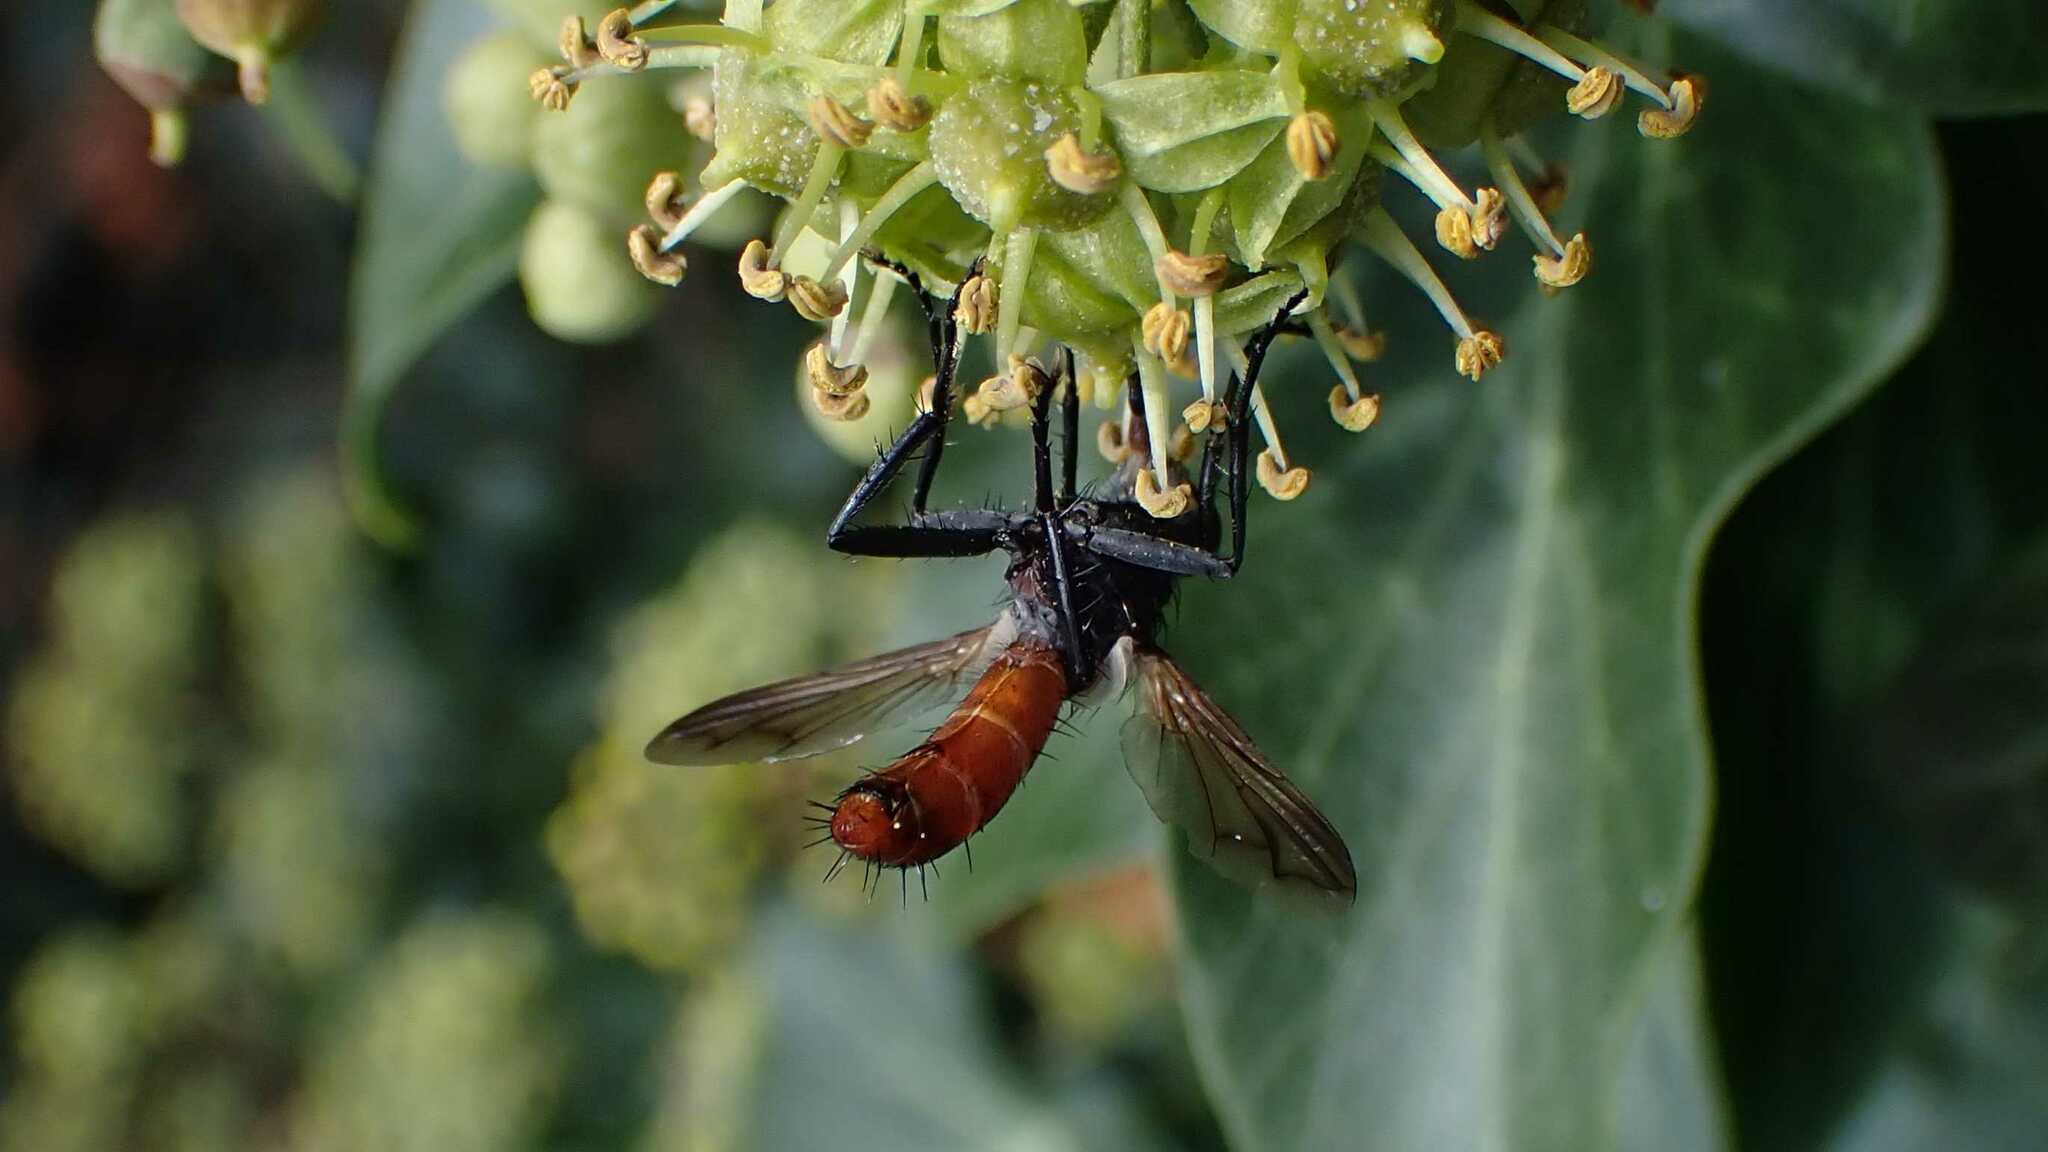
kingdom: Animalia
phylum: Arthropoda
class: Insecta
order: Diptera
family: Tachinidae
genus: Cylindromyia
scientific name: Cylindromyia bicolor
